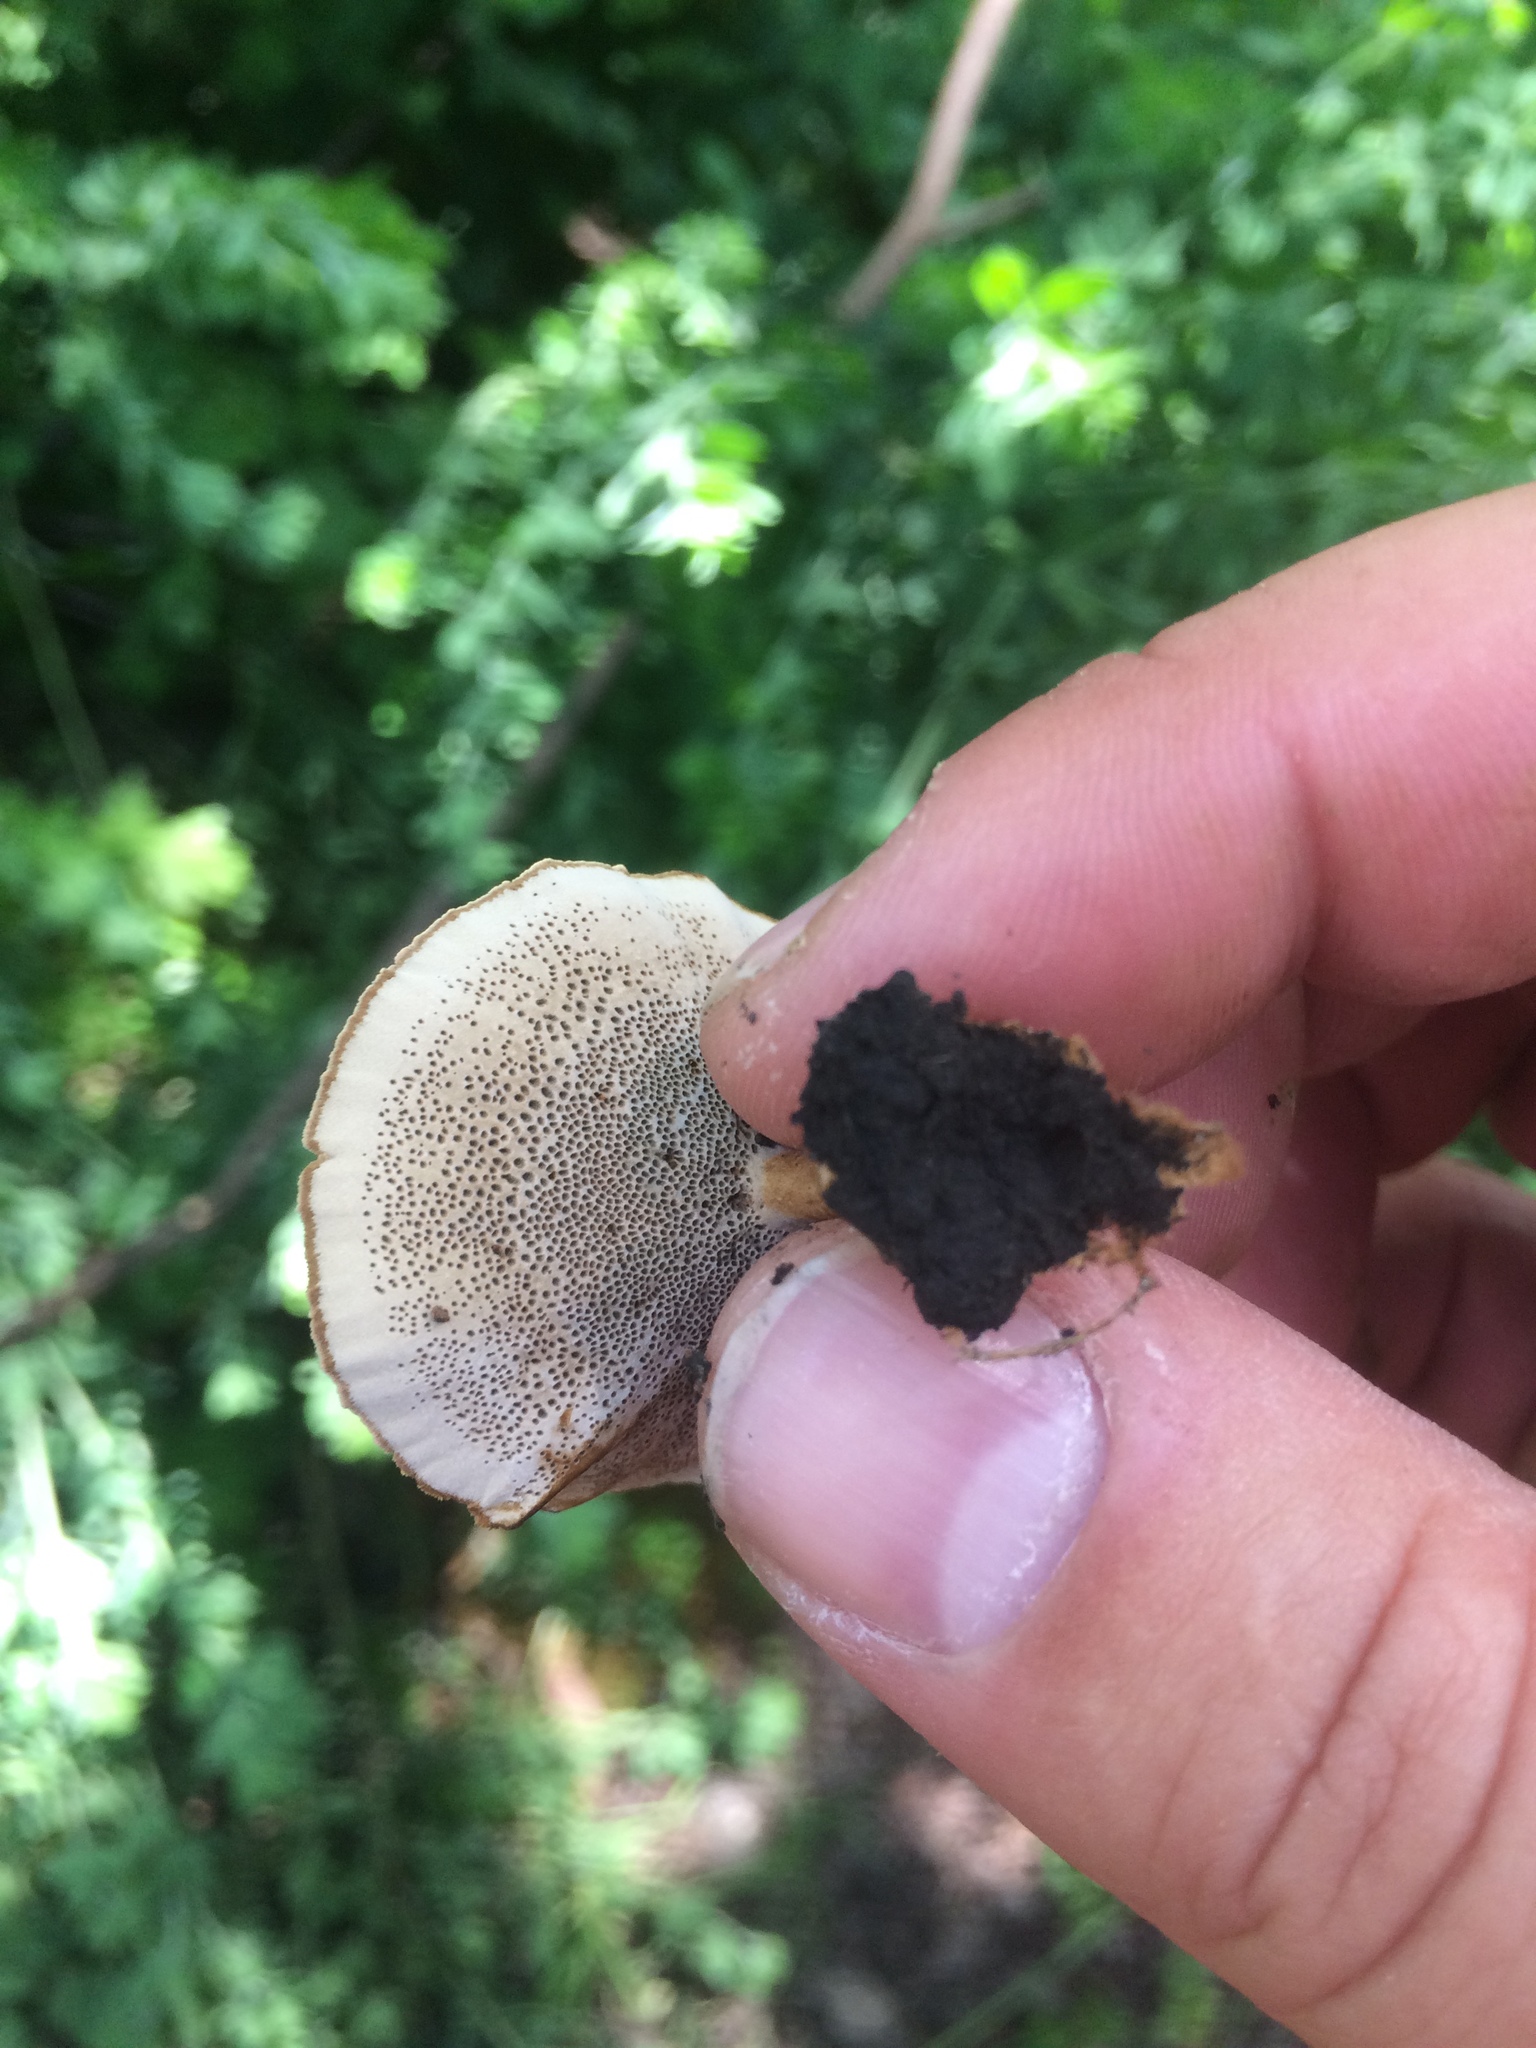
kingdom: Fungi
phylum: Basidiomycota
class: Agaricomycetes
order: Hymenochaetales
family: Hymenochaetaceae
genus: Coltricia
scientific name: Coltricia perennis
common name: Tiger's eye
